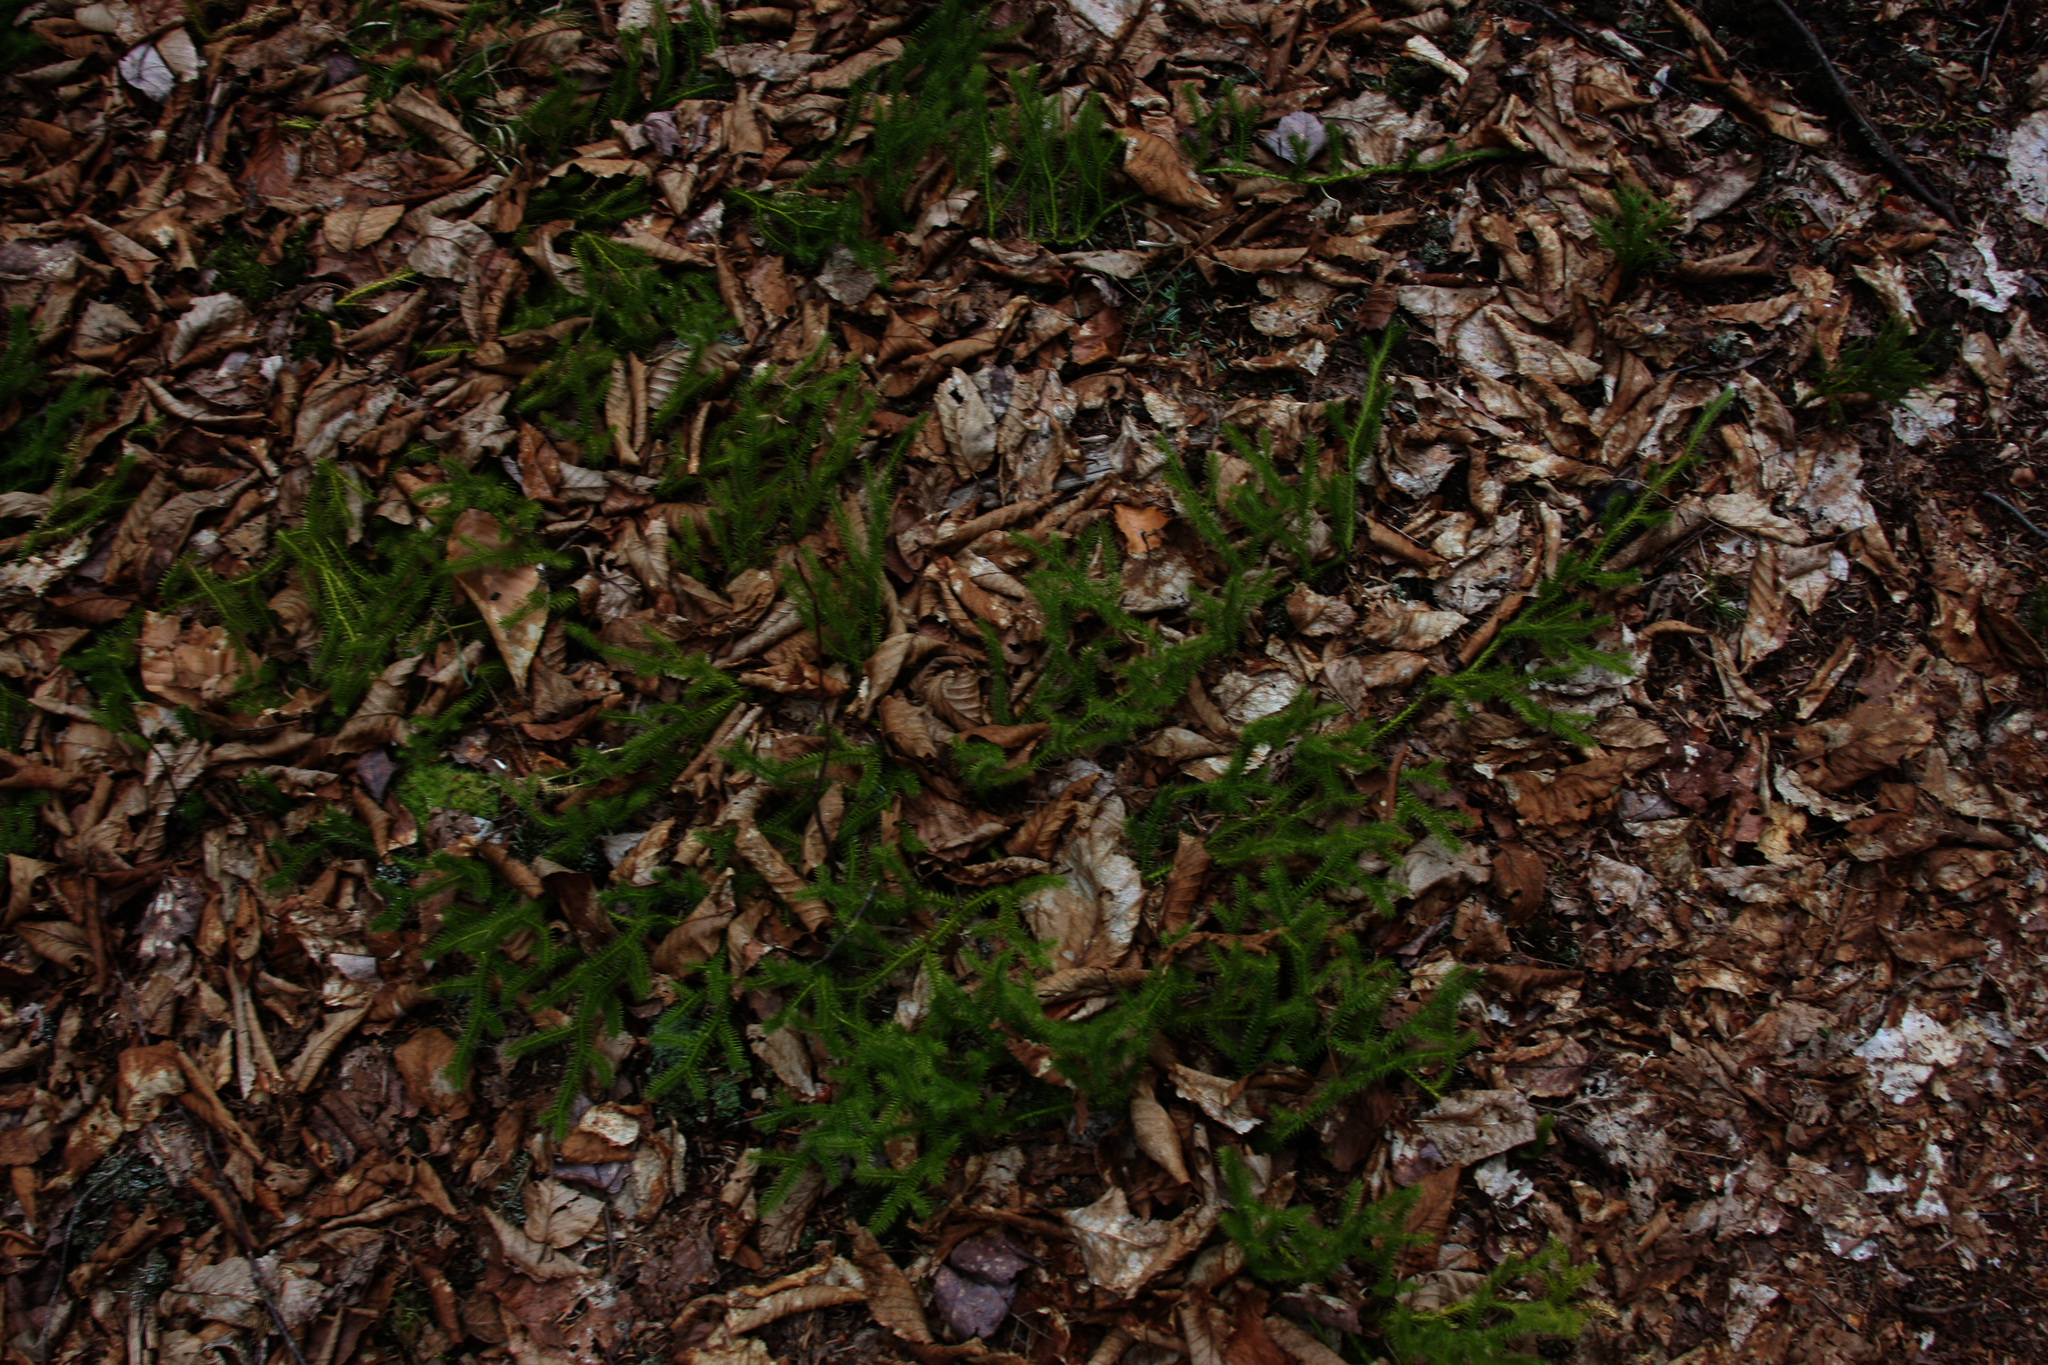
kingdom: Plantae
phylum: Tracheophyta
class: Lycopodiopsida
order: Lycopodiales
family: Lycopodiaceae
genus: Lycopodium
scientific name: Lycopodium clavatum
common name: Stag's-horn clubmoss
